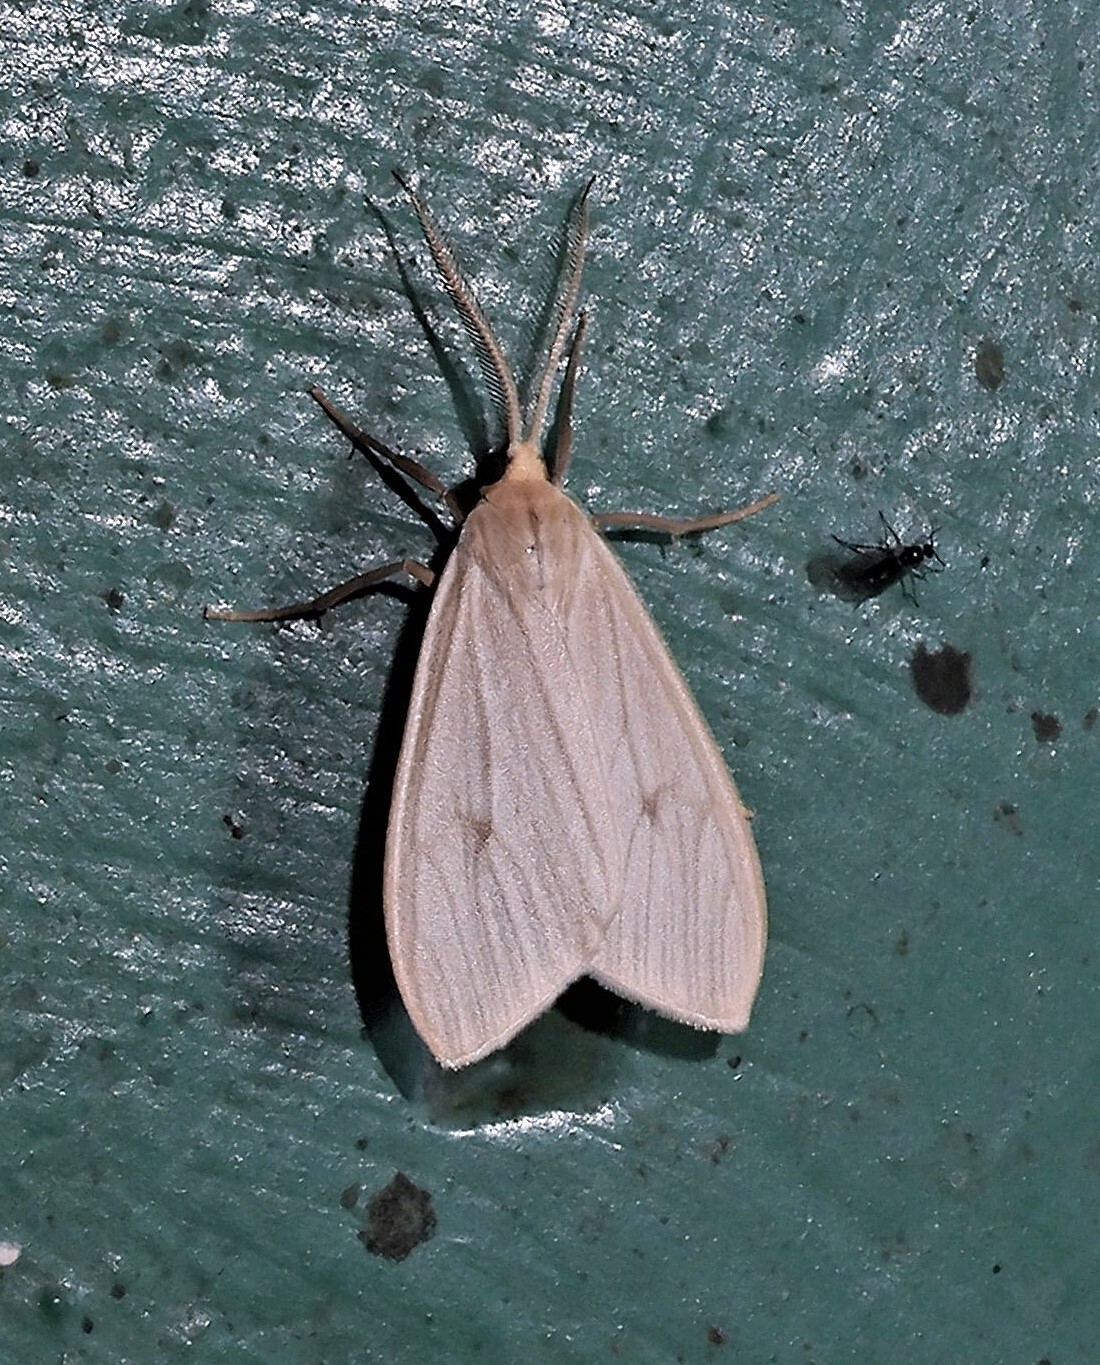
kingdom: Animalia
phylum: Arthropoda
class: Insecta
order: Lepidoptera
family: Erebidae
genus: Gloora
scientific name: Gloora mundula
